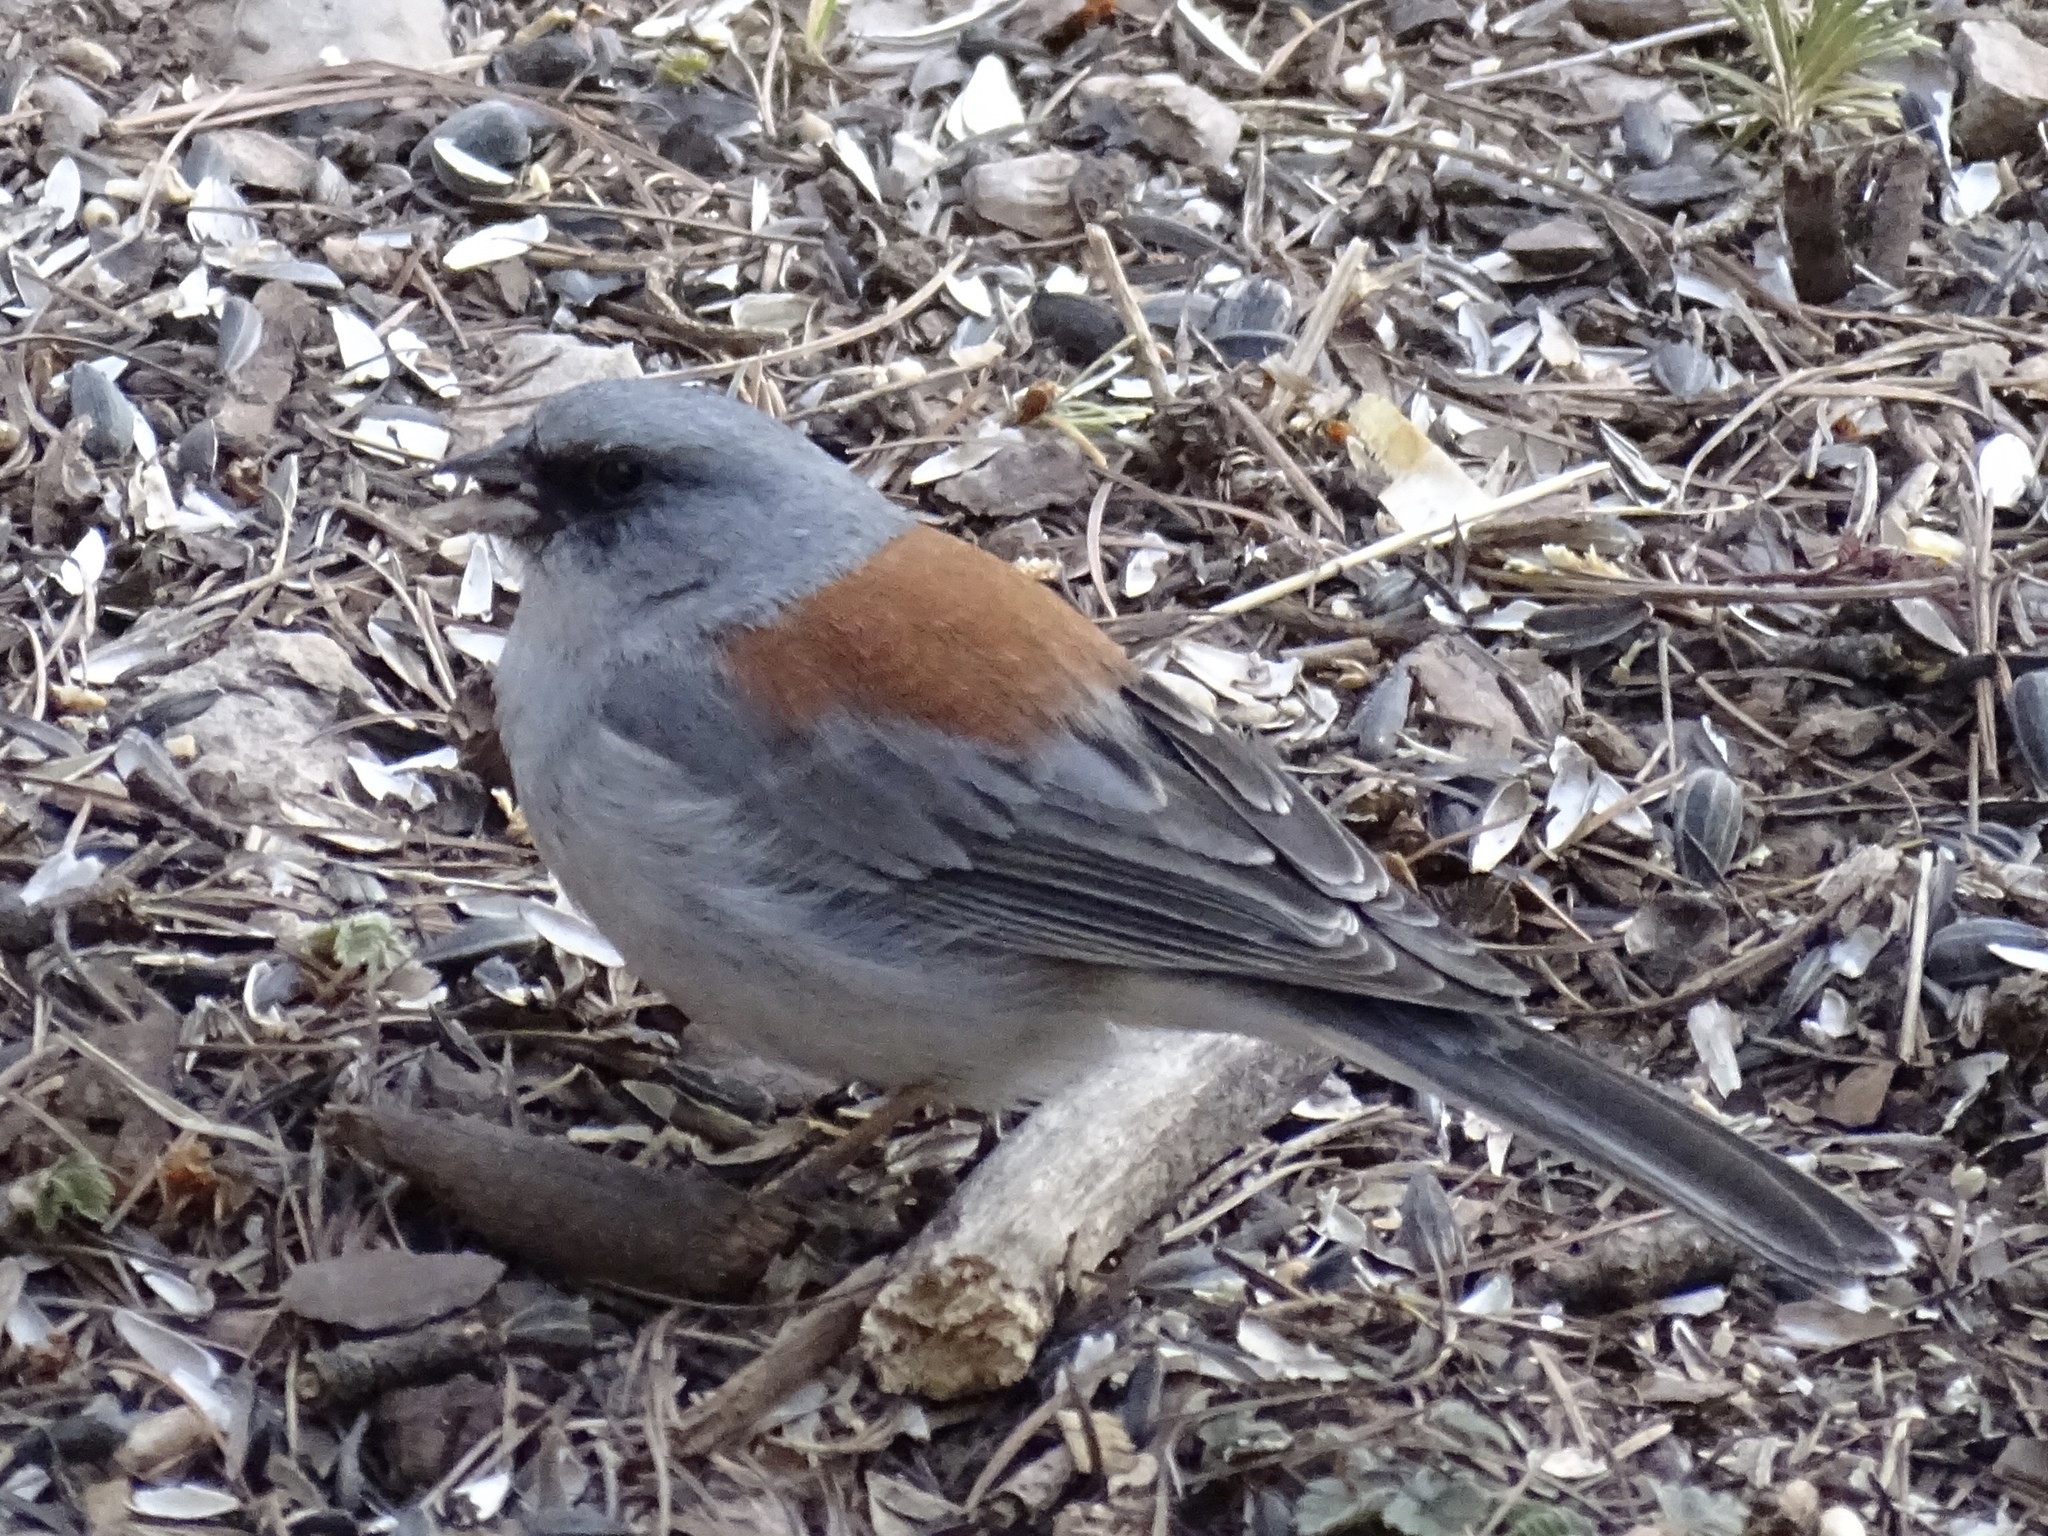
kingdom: Animalia
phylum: Chordata
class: Aves
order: Passeriformes
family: Passerellidae
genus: Junco
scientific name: Junco hyemalis
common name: Dark-eyed junco
